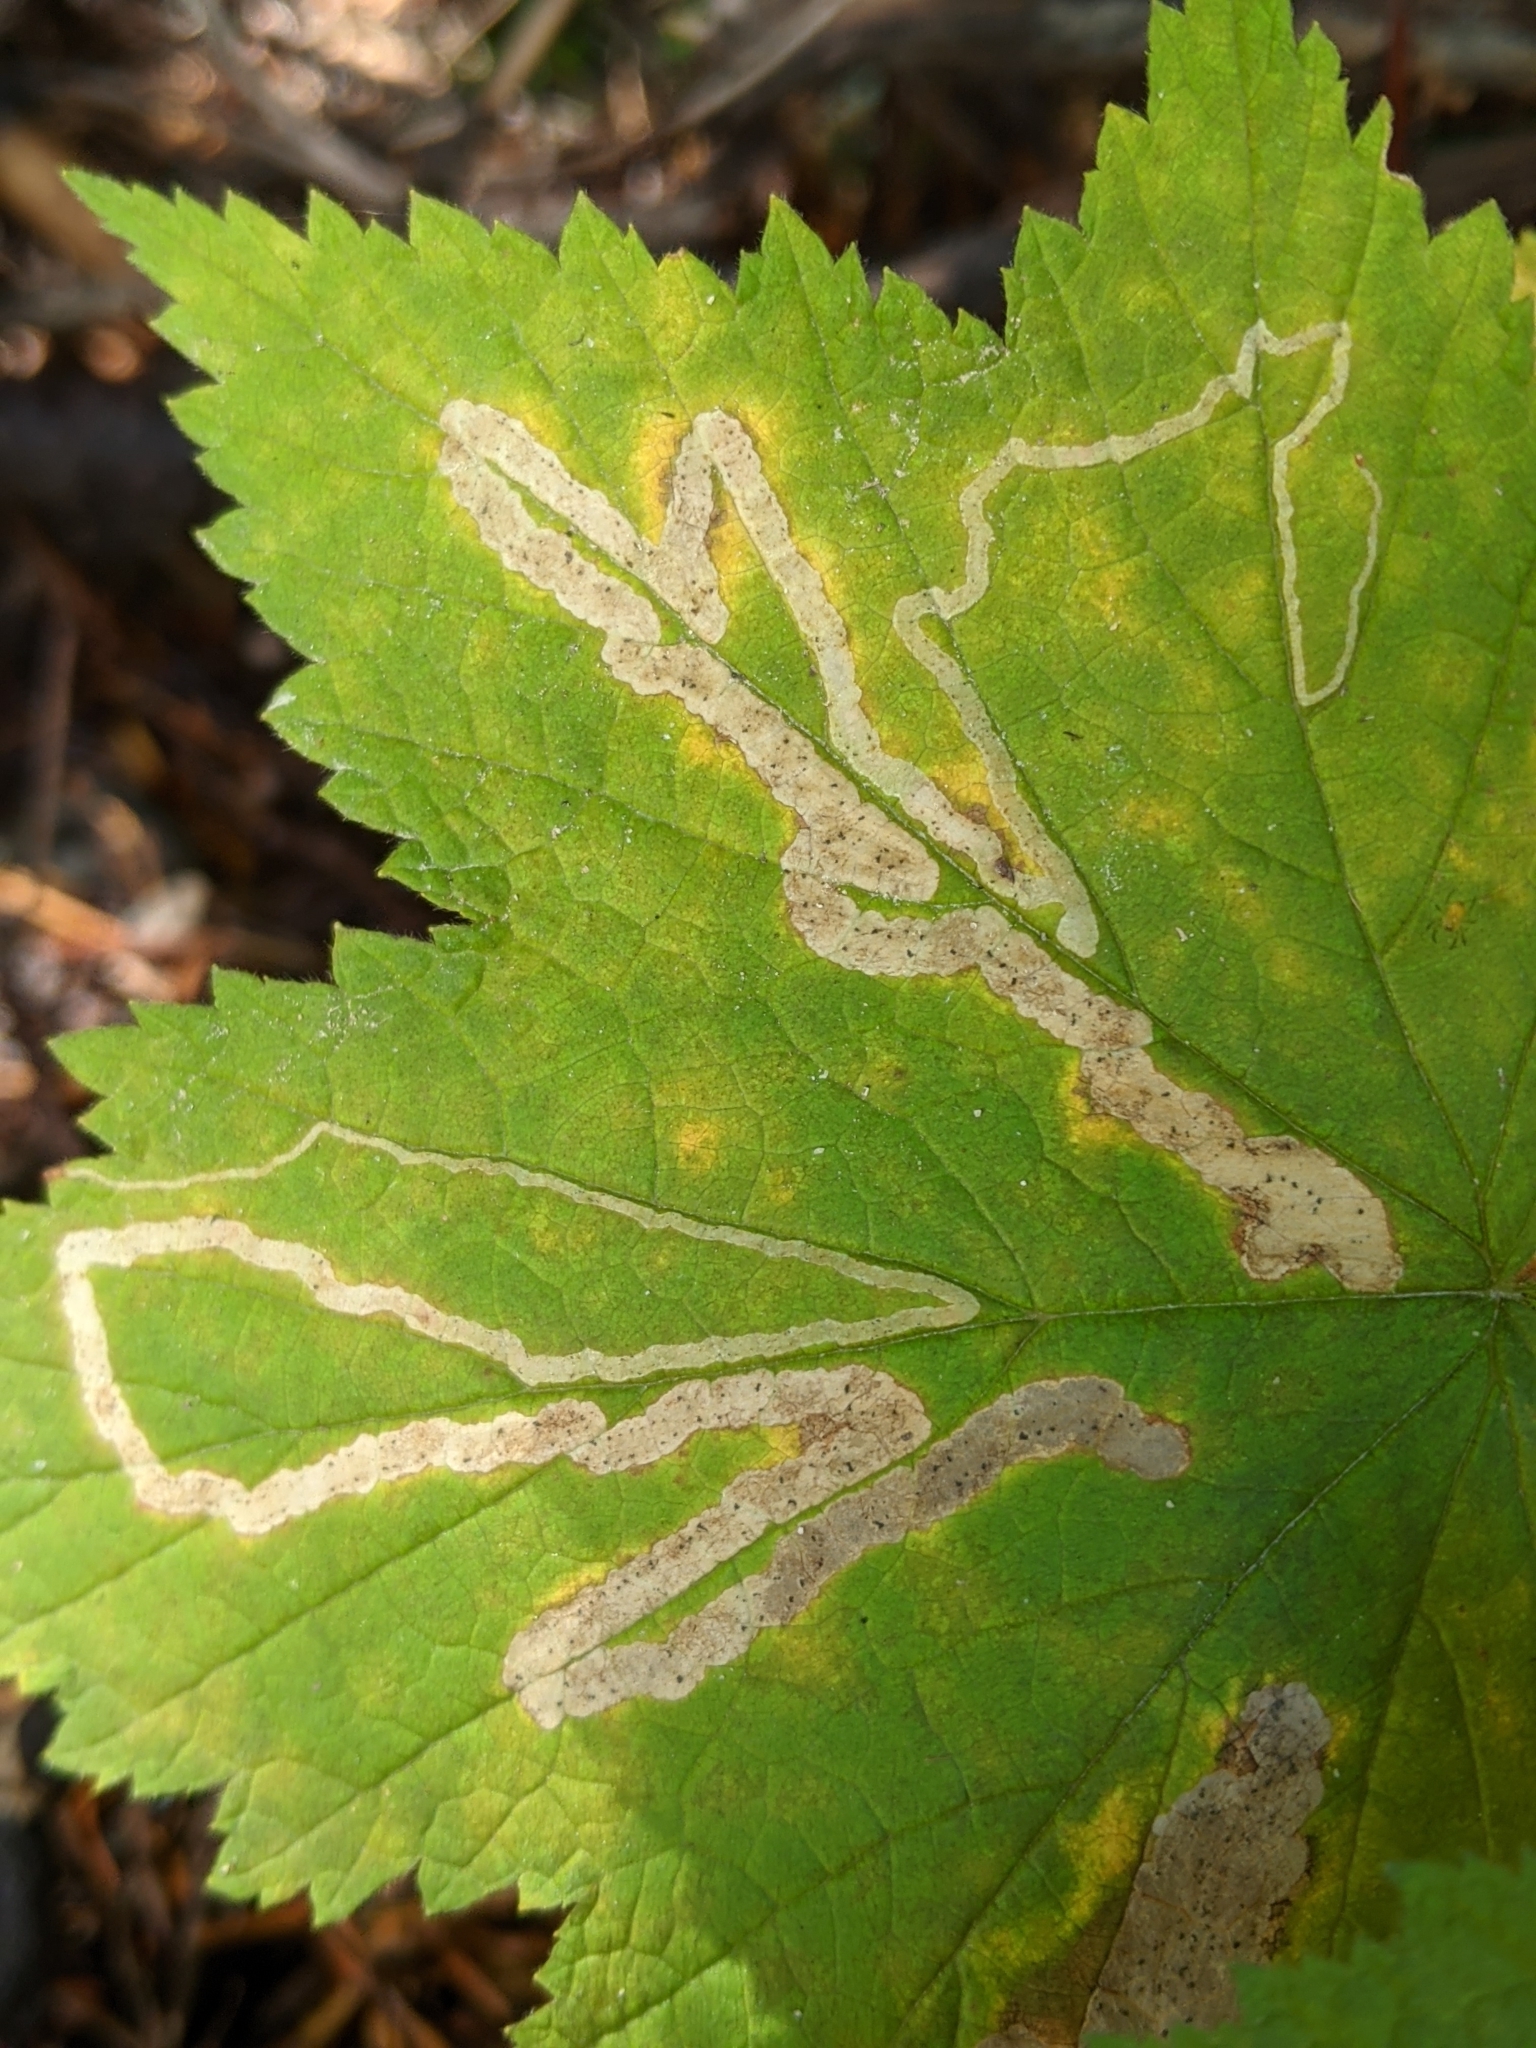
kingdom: Animalia
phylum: Arthropoda
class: Insecta
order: Diptera
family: Agromyzidae
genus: Agromyza
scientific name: Agromyza vockerothi
